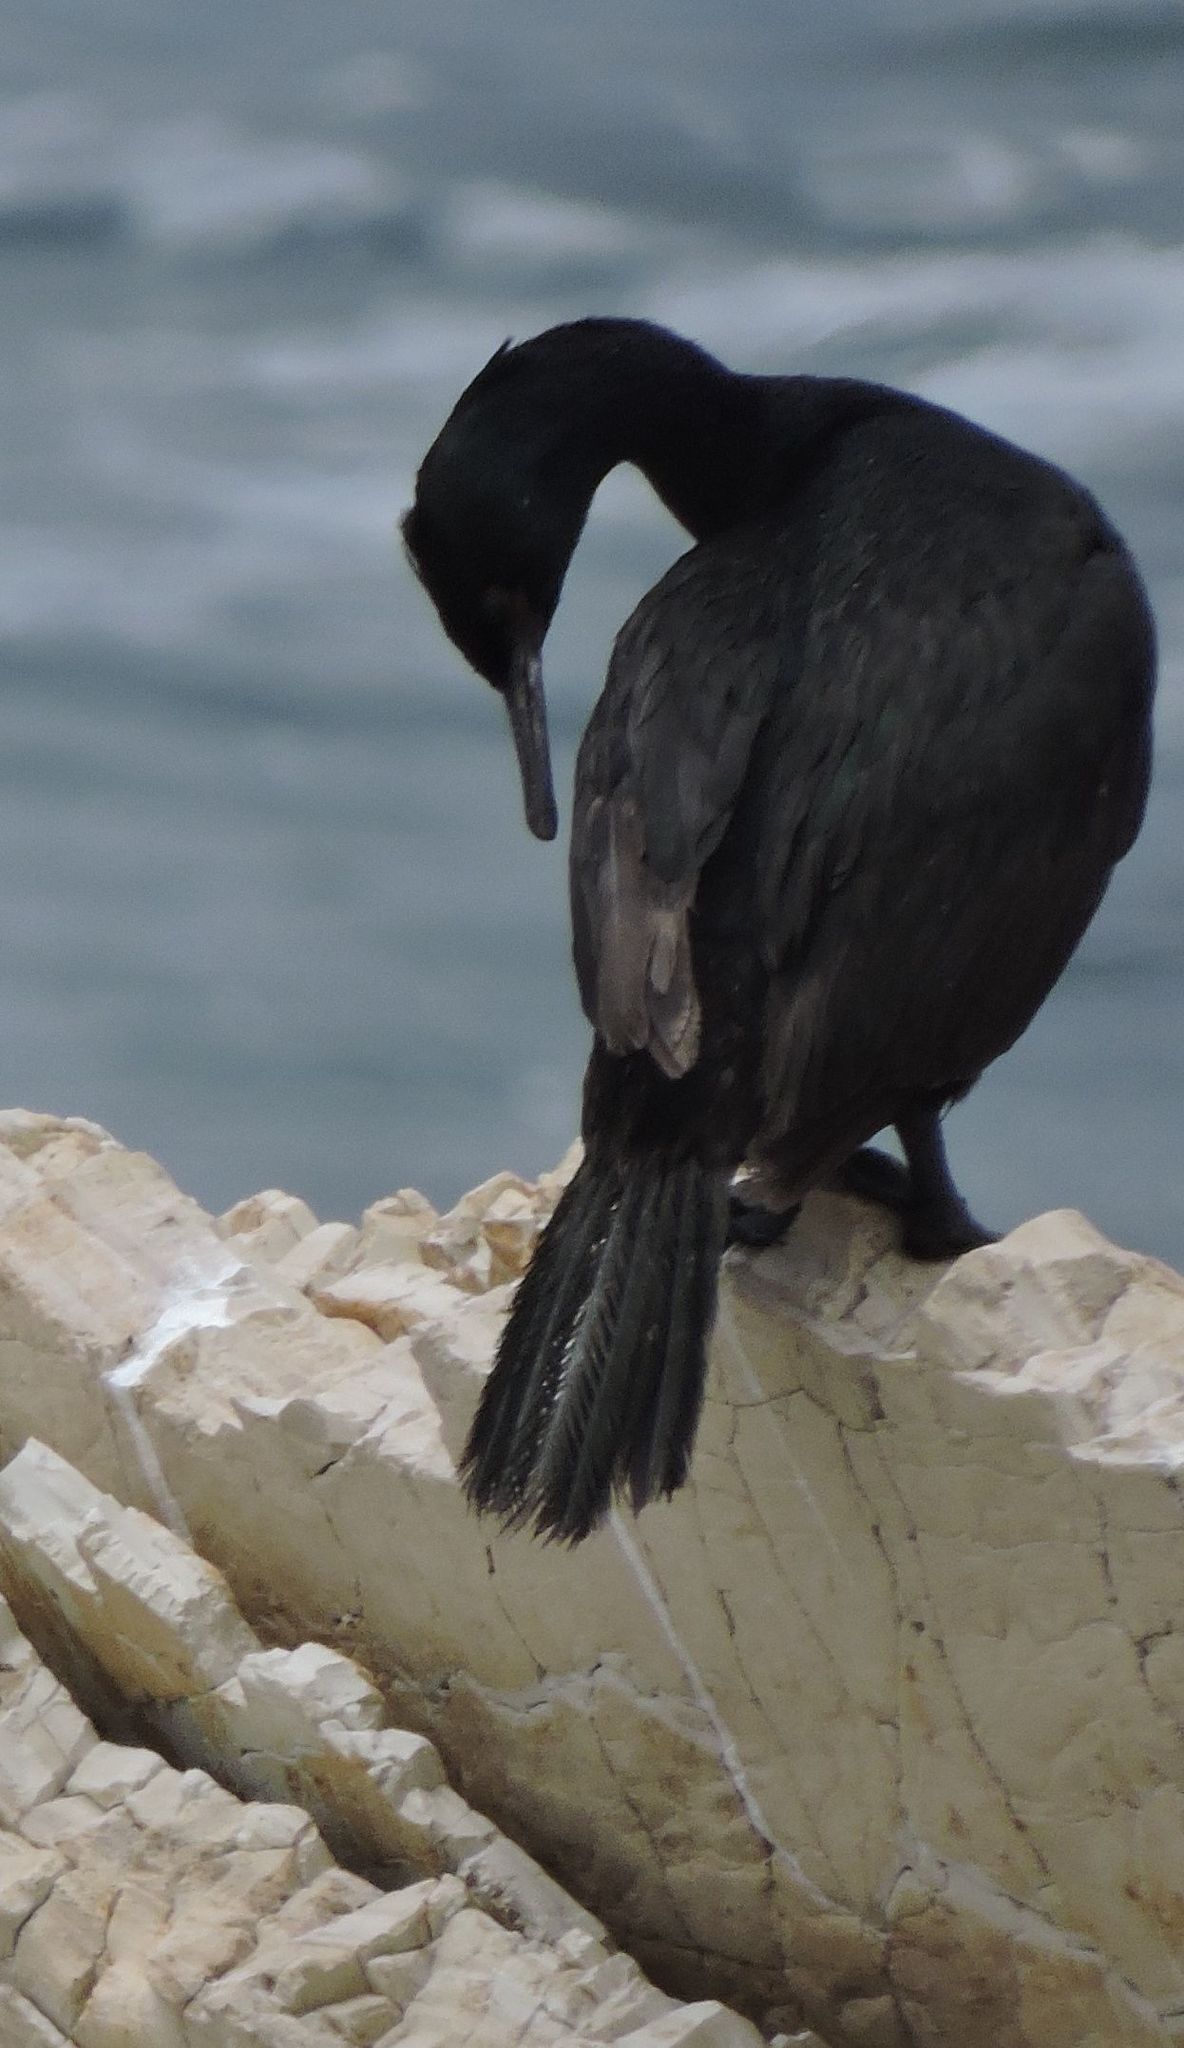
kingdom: Animalia
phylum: Chordata
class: Aves
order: Suliformes
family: Phalacrocoracidae
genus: Phalacrocorax
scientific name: Phalacrocorax pelagicus
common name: Pelagic cormorant
